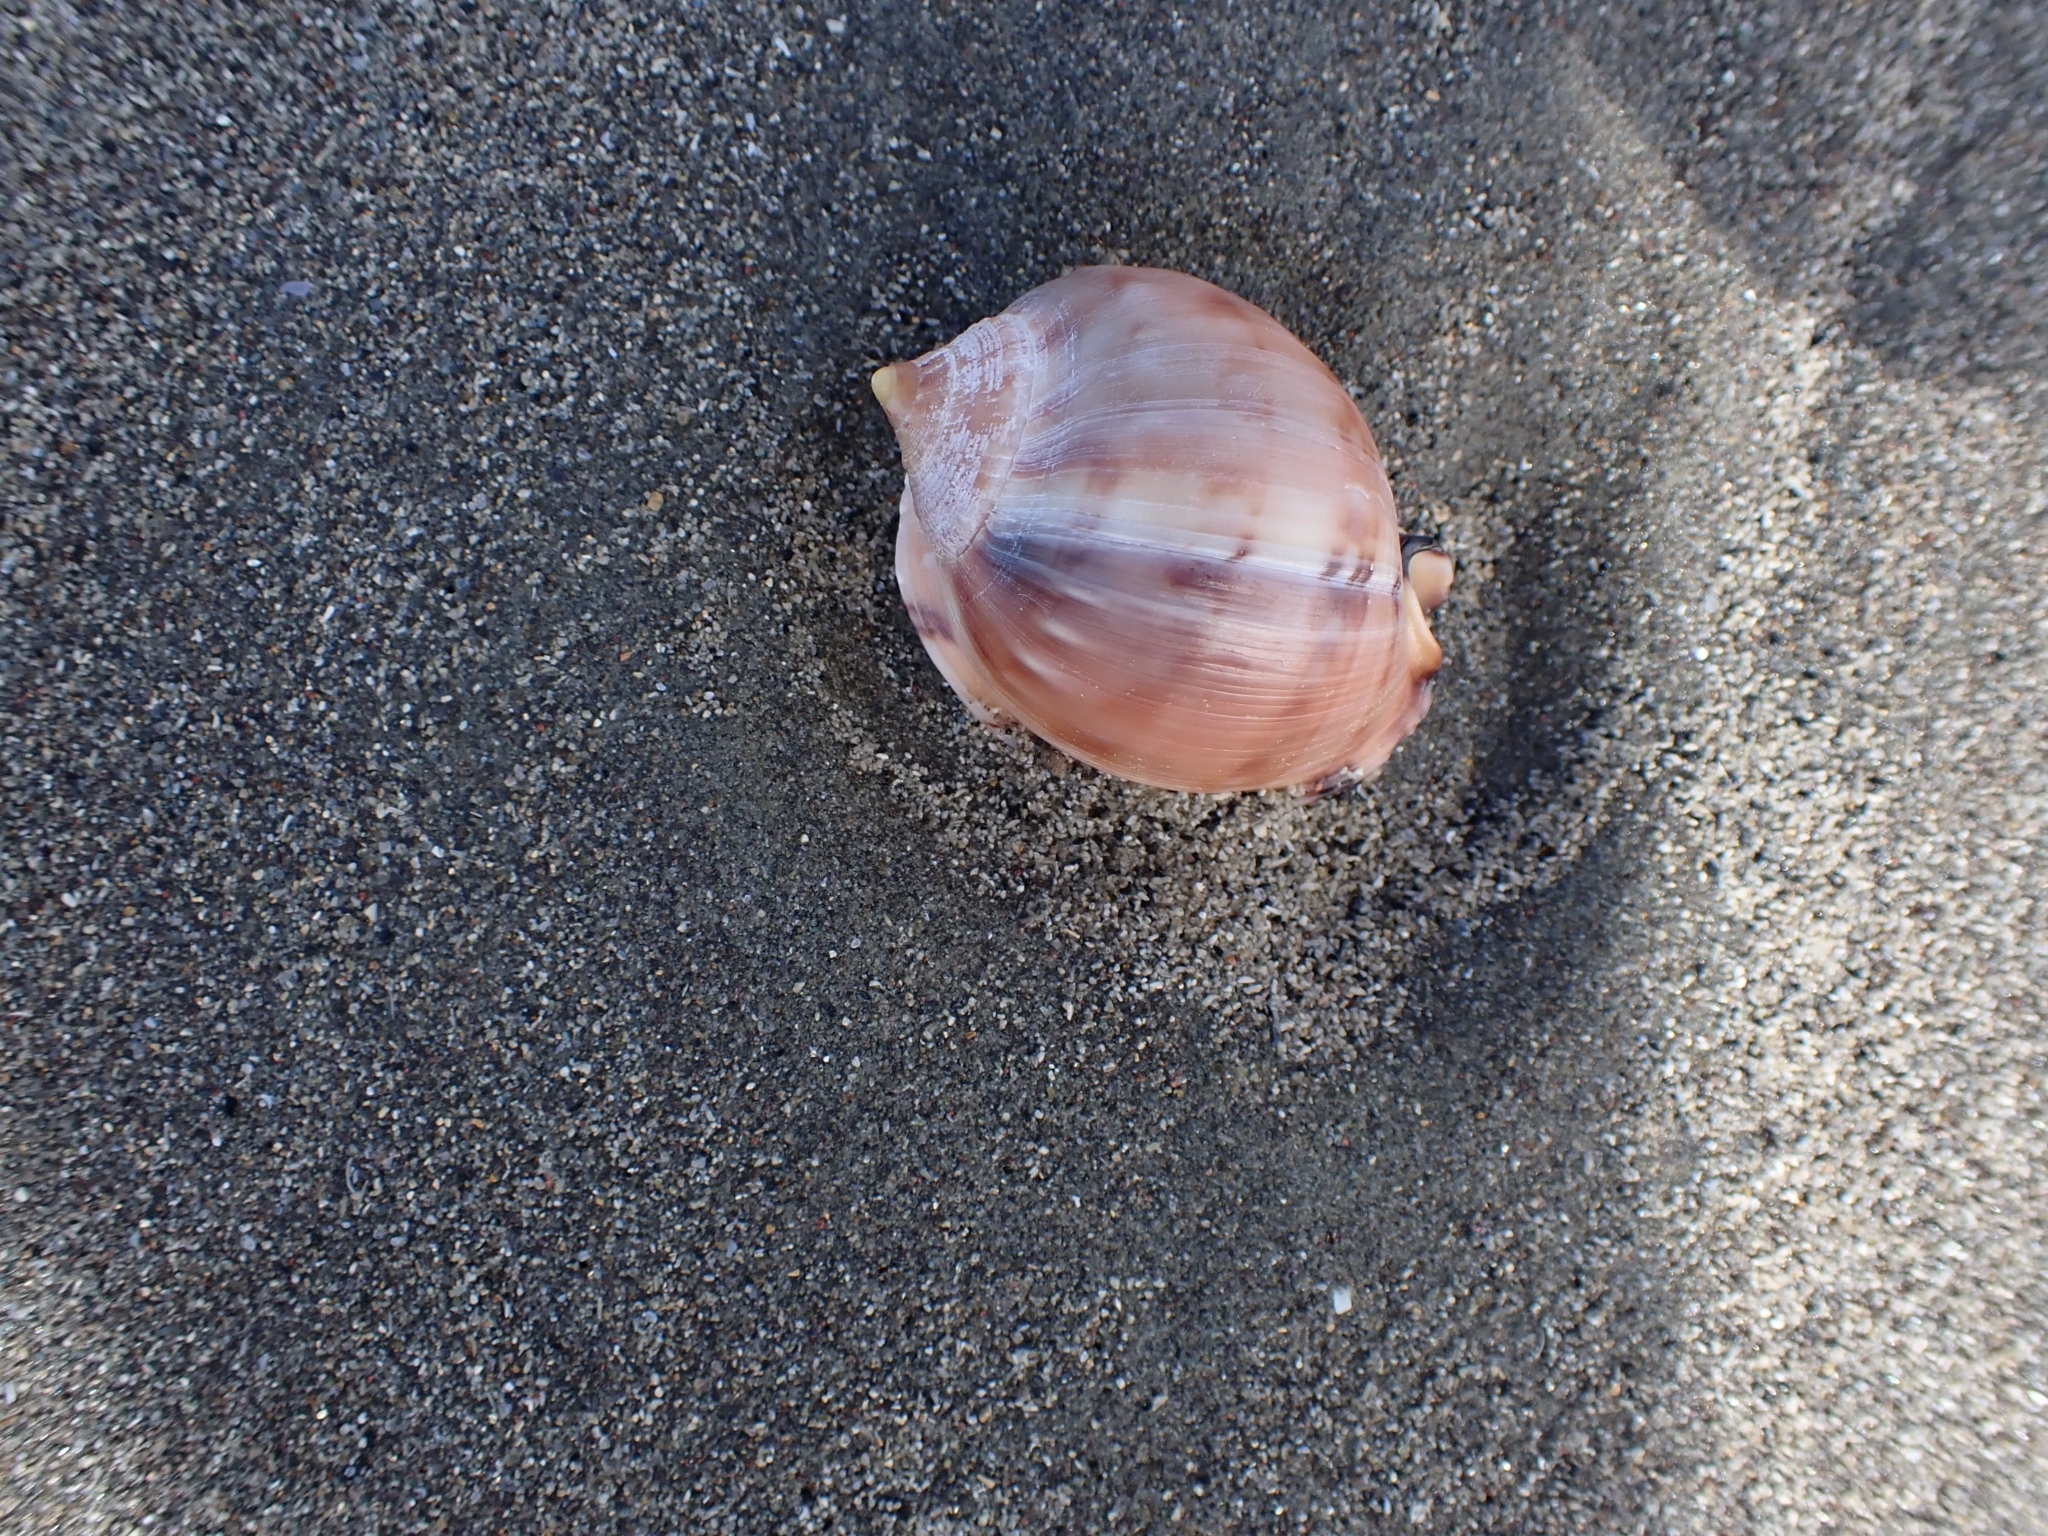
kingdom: Animalia
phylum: Mollusca
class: Gastropoda
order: Littorinimorpha
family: Cassidae
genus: Semicassis
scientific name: Semicassis pyrum
